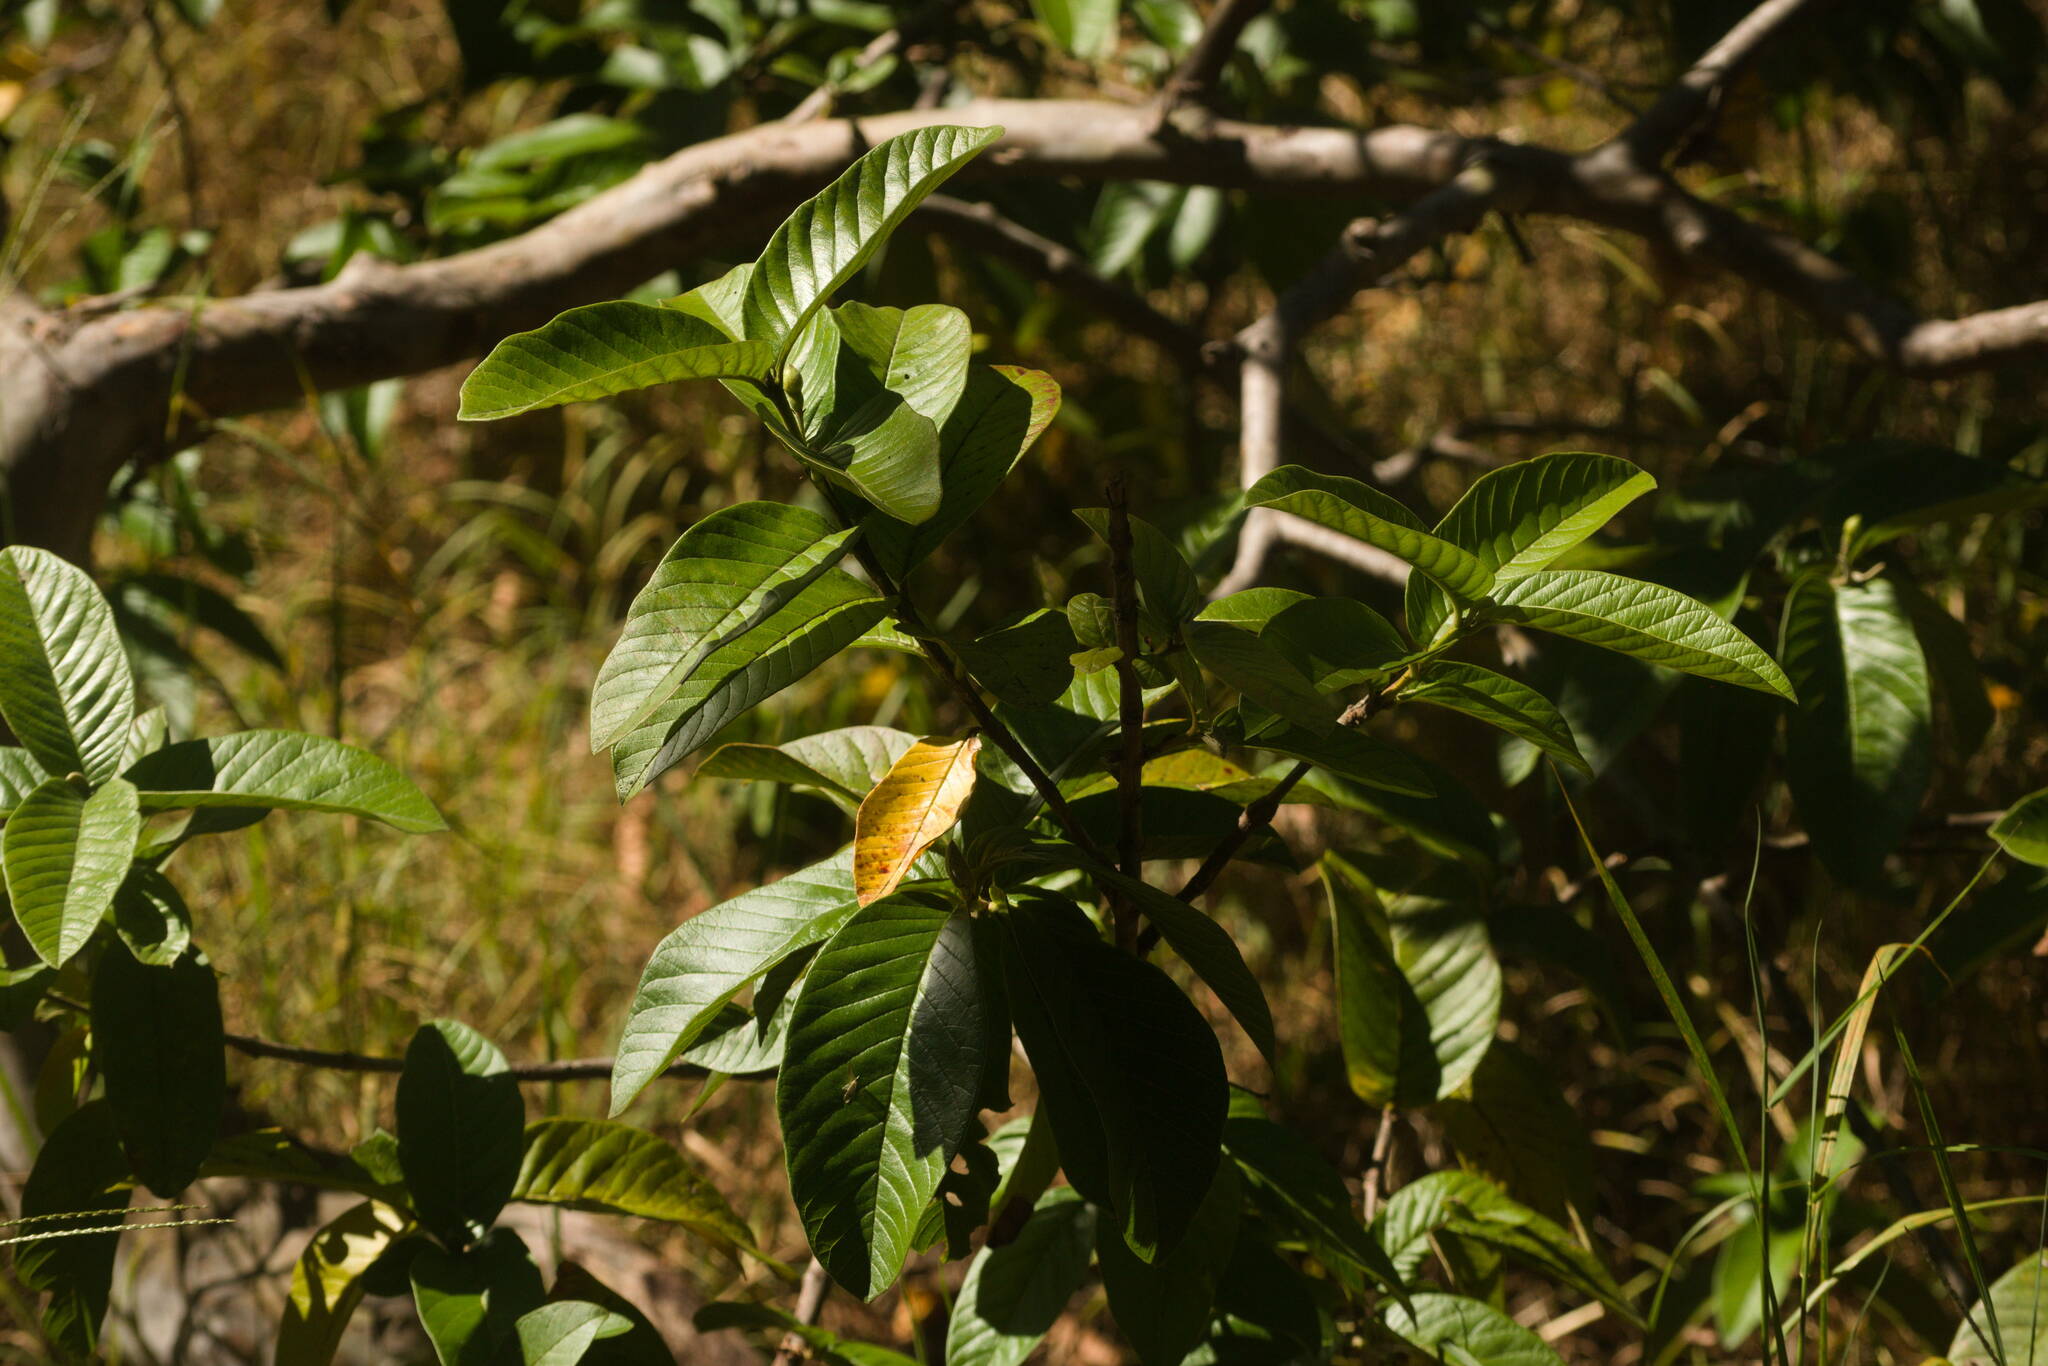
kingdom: Plantae
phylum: Tracheophyta
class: Magnoliopsida
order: Myrtales
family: Myrtaceae
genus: Psidium
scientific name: Psidium guajava
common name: Guava
